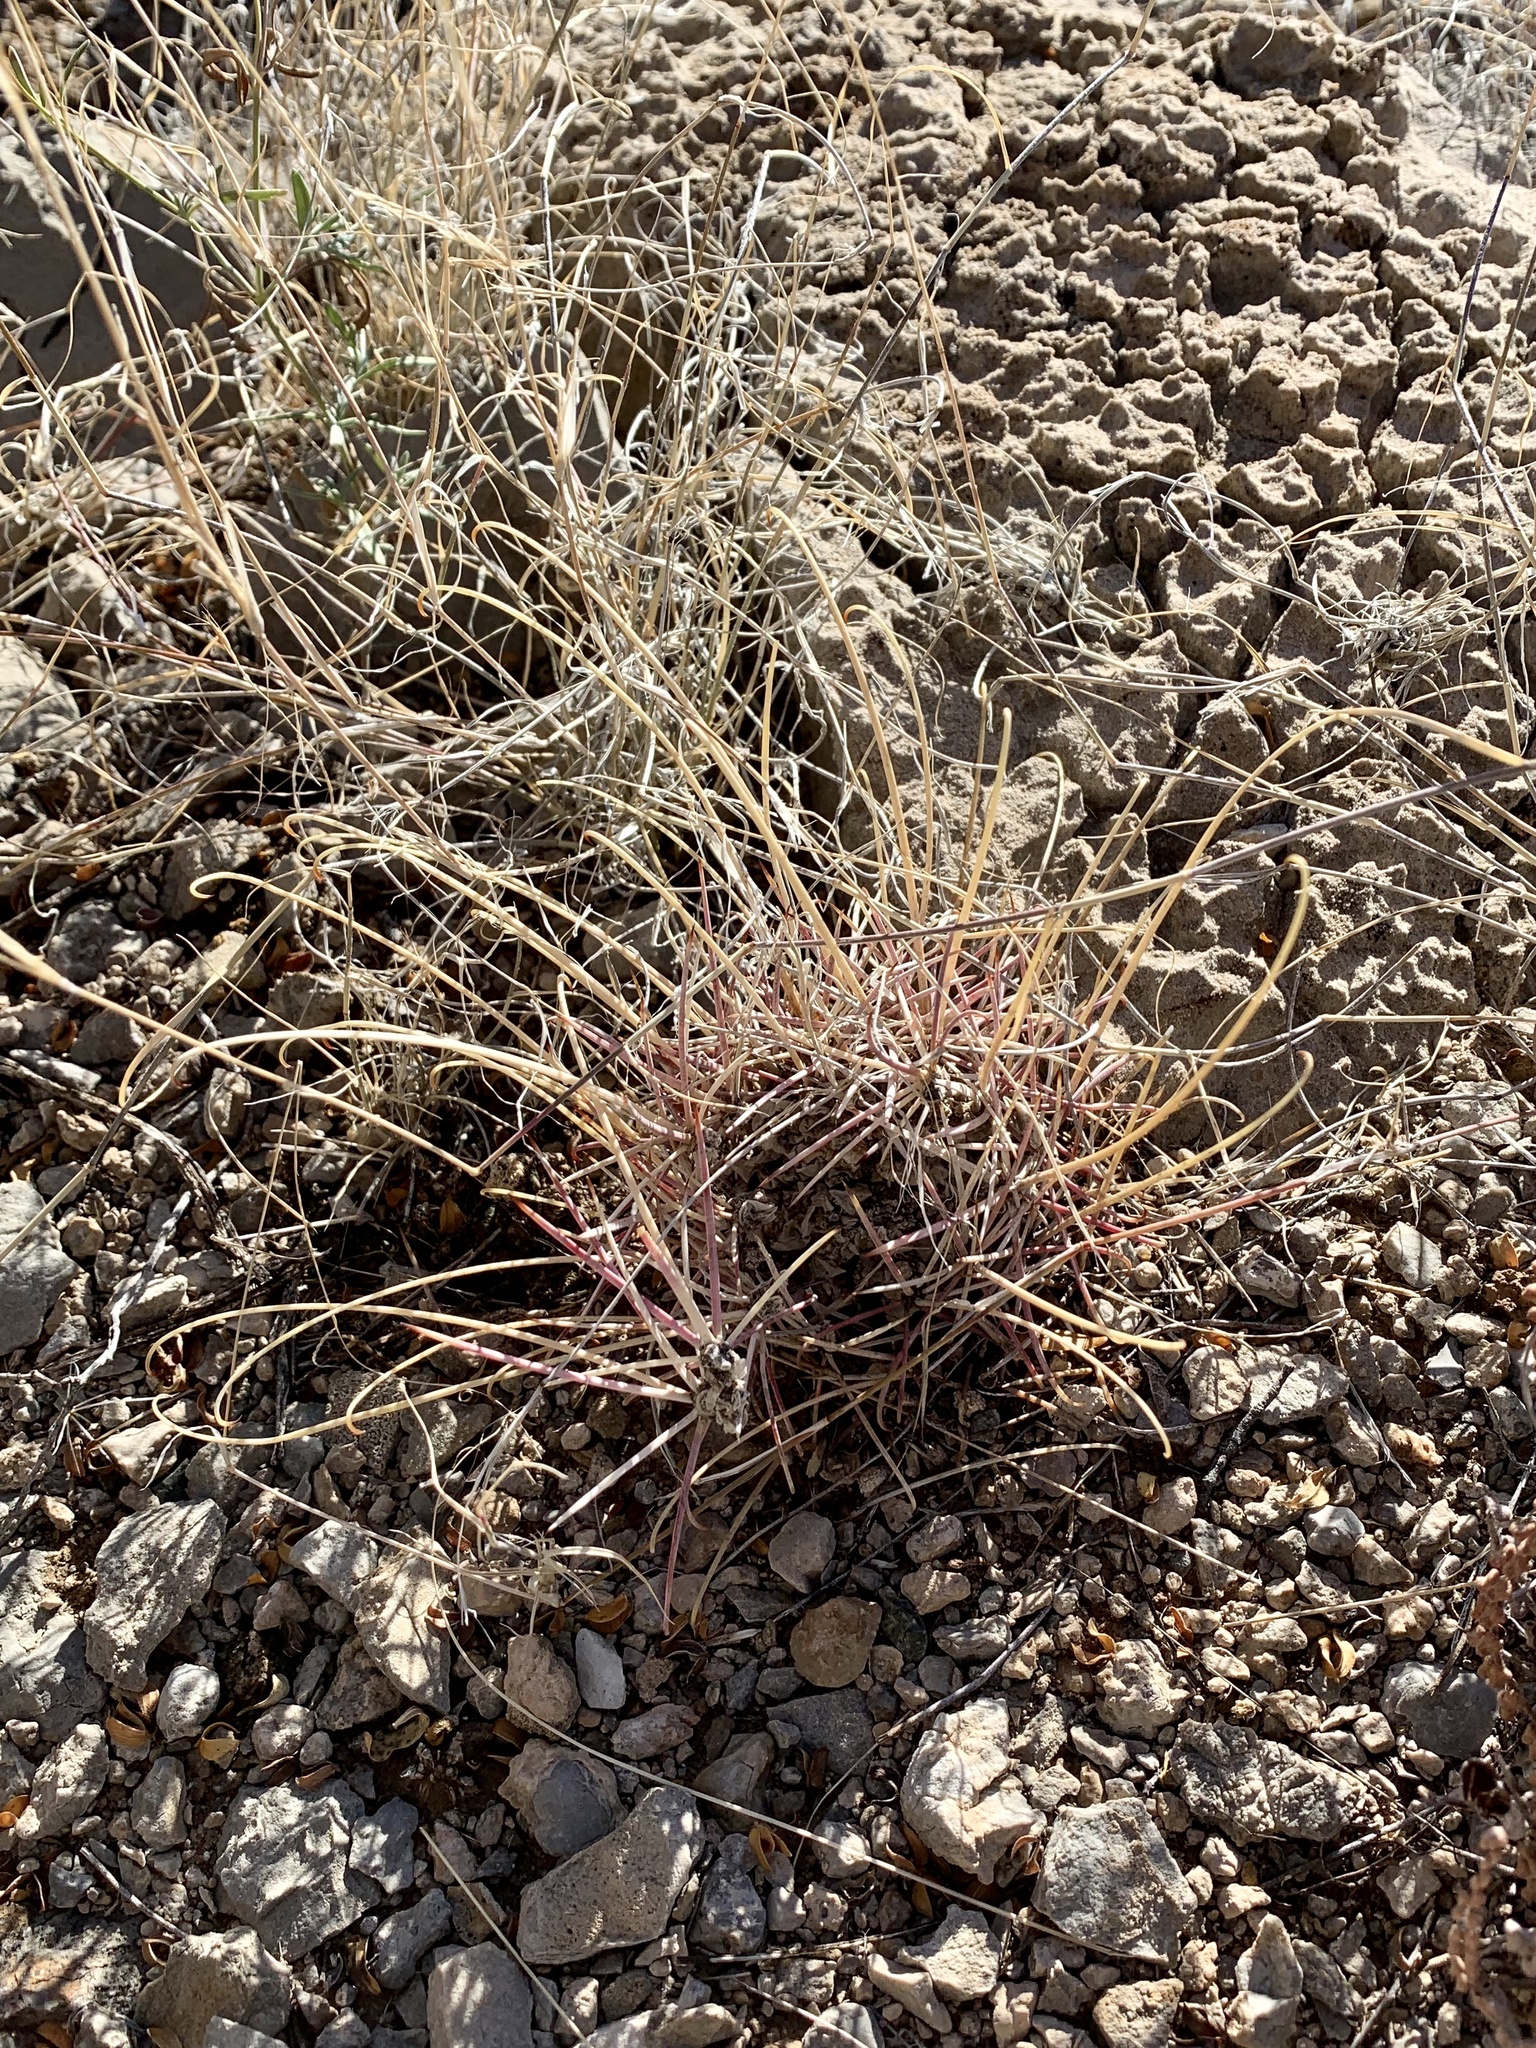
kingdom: Plantae
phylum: Tracheophyta
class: Magnoliopsida
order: Caryophyllales
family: Cactaceae
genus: Ferocactus
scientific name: Ferocactus uncinatus
